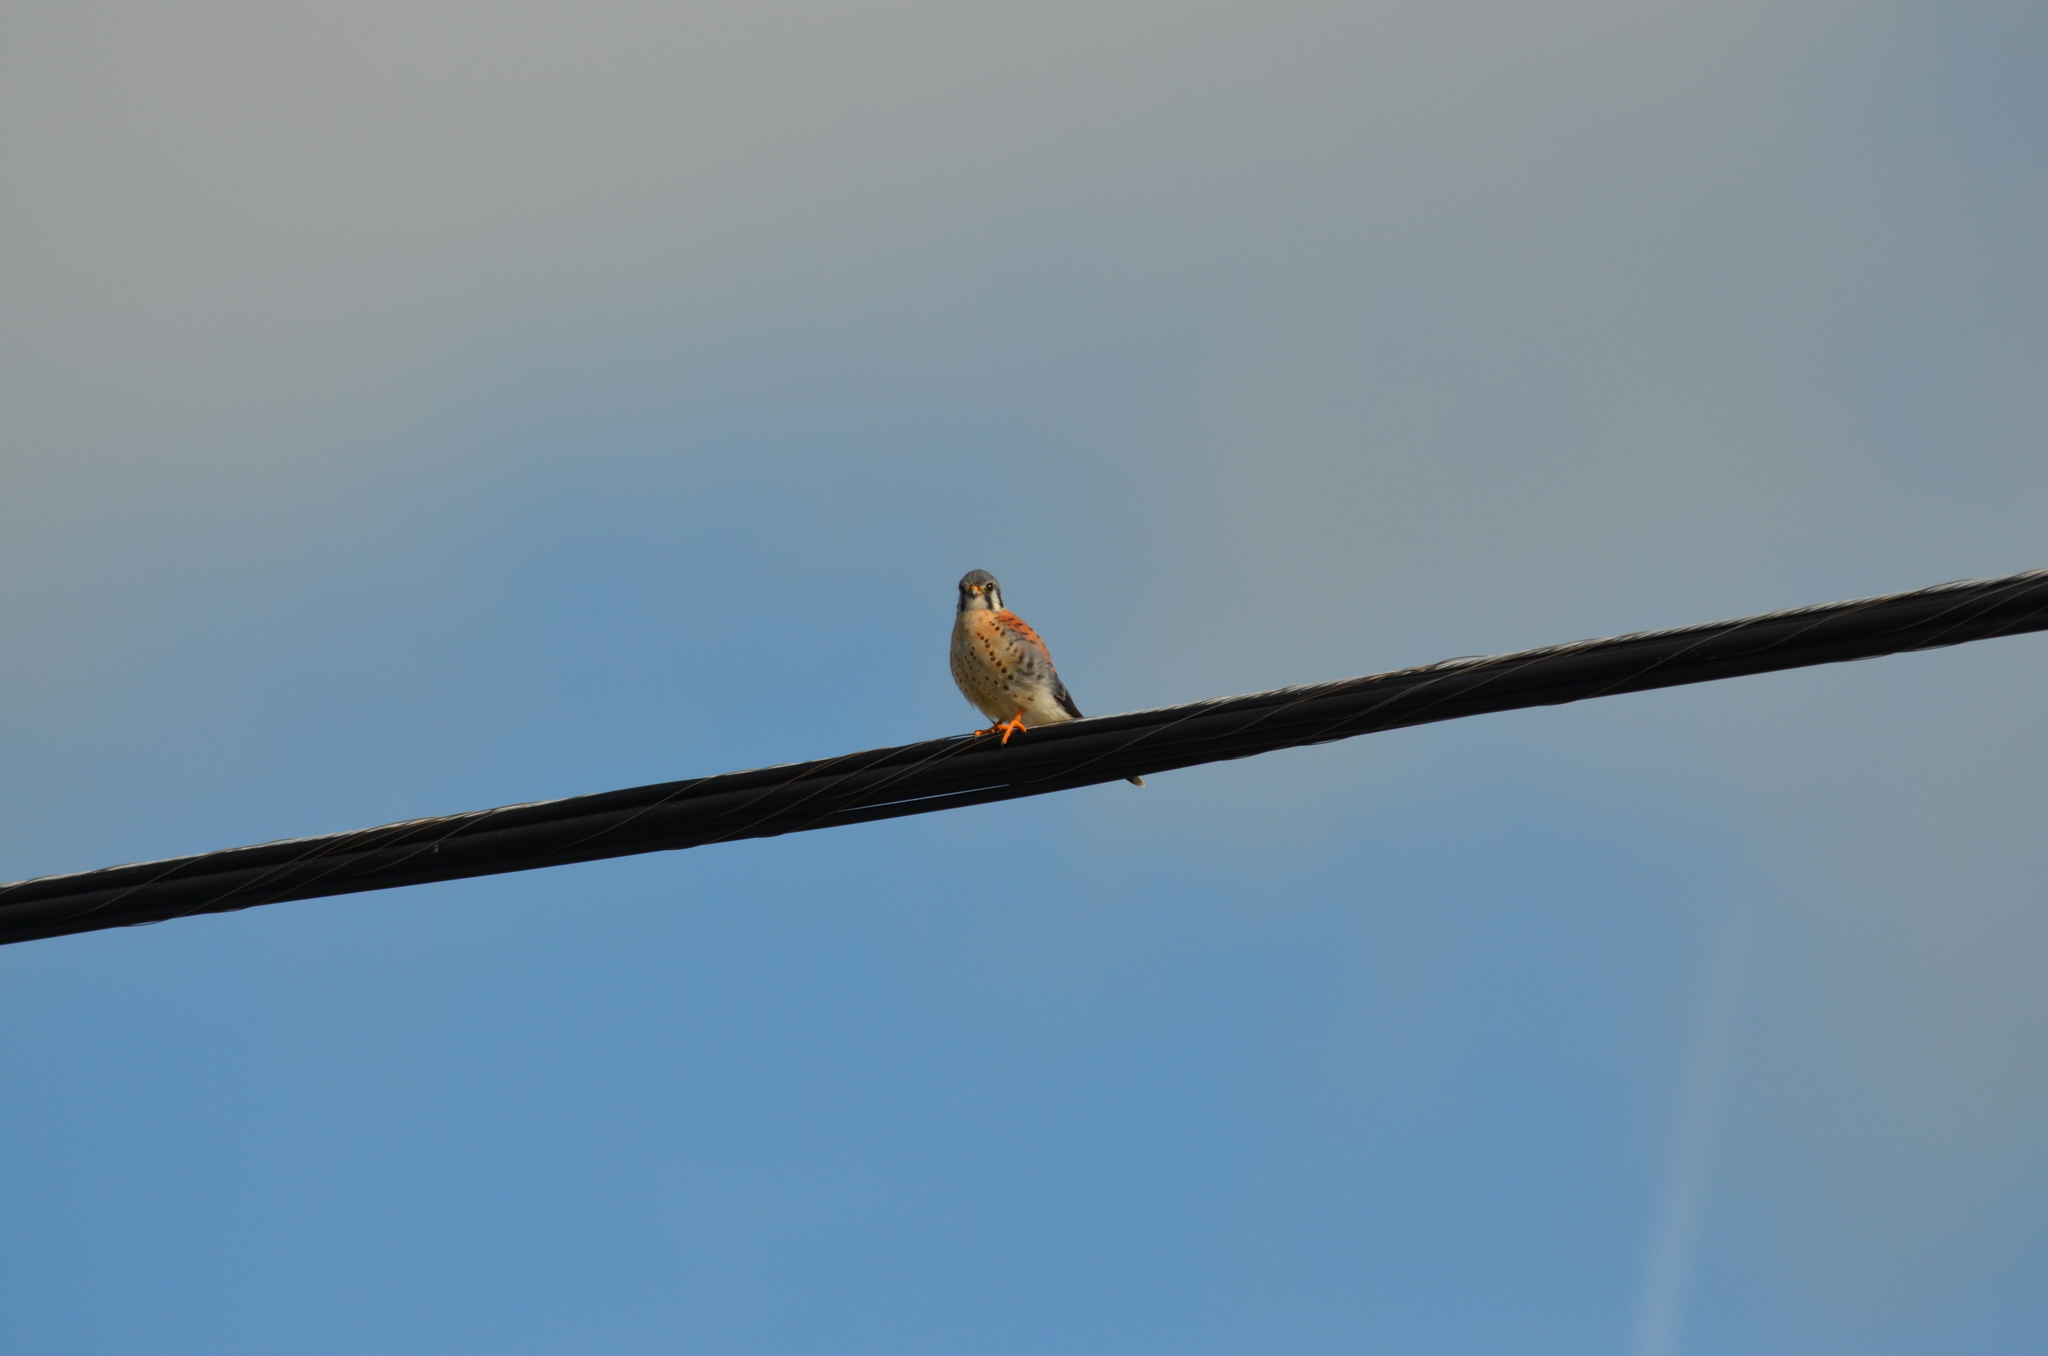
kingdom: Animalia
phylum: Chordata
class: Aves
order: Falconiformes
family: Falconidae
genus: Falco
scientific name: Falco sparverius
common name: American kestrel
